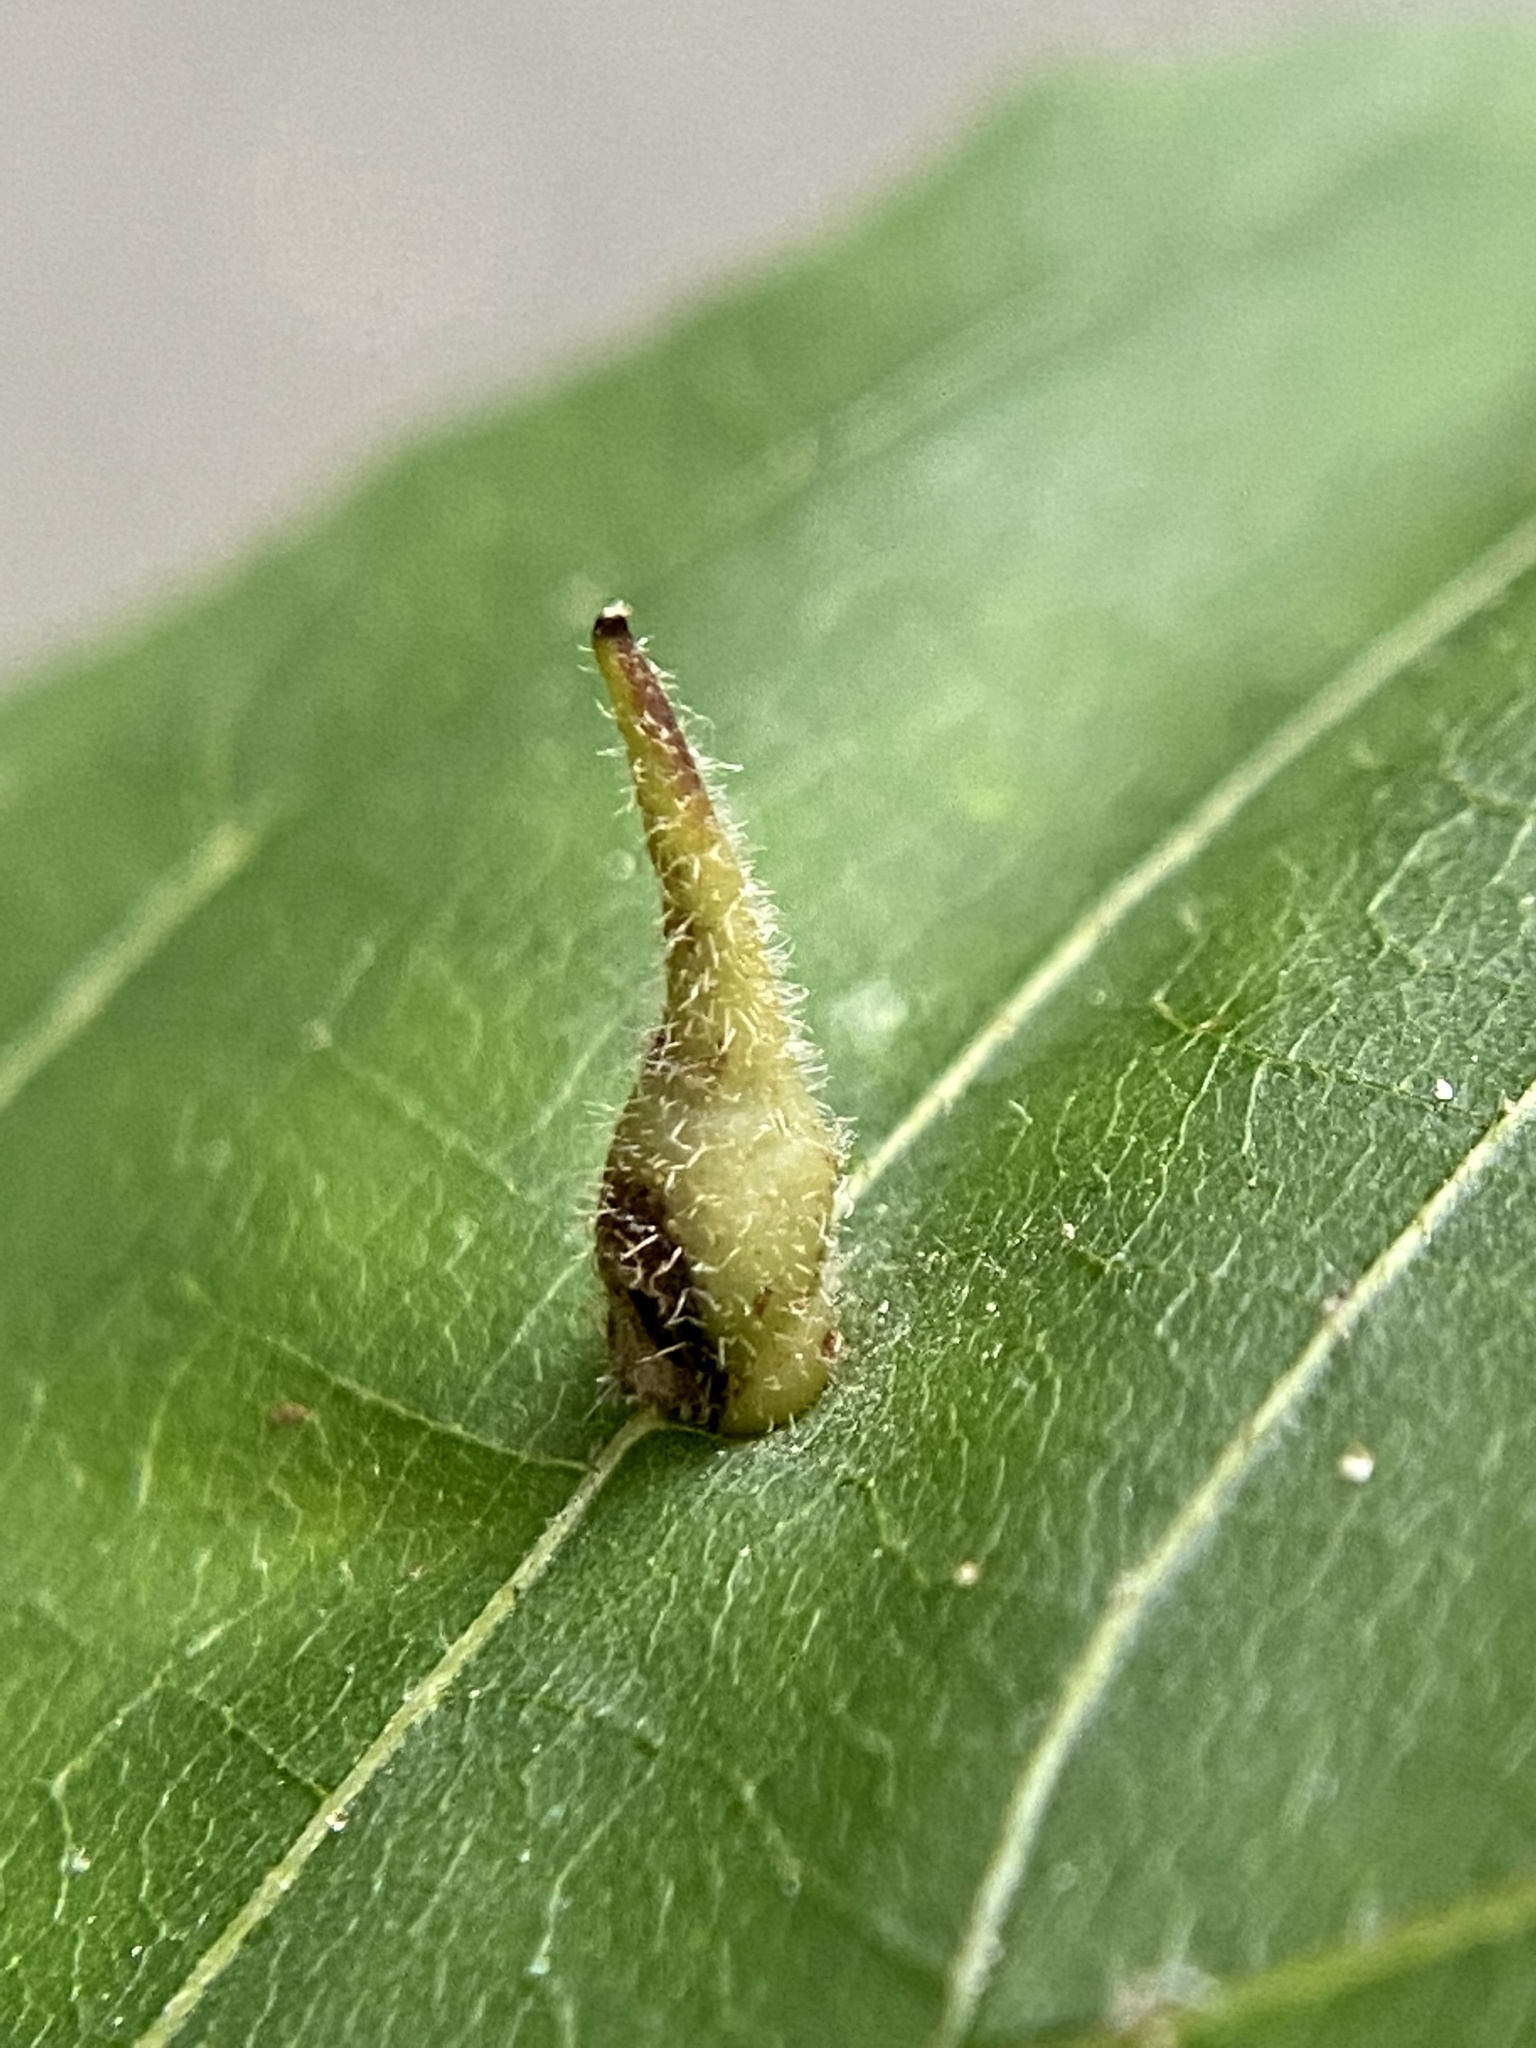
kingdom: Animalia
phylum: Arthropoda
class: Insecta
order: Diptera
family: Cecidomyiidae
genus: Caryomyia
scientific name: Caryomyia spinulosa
